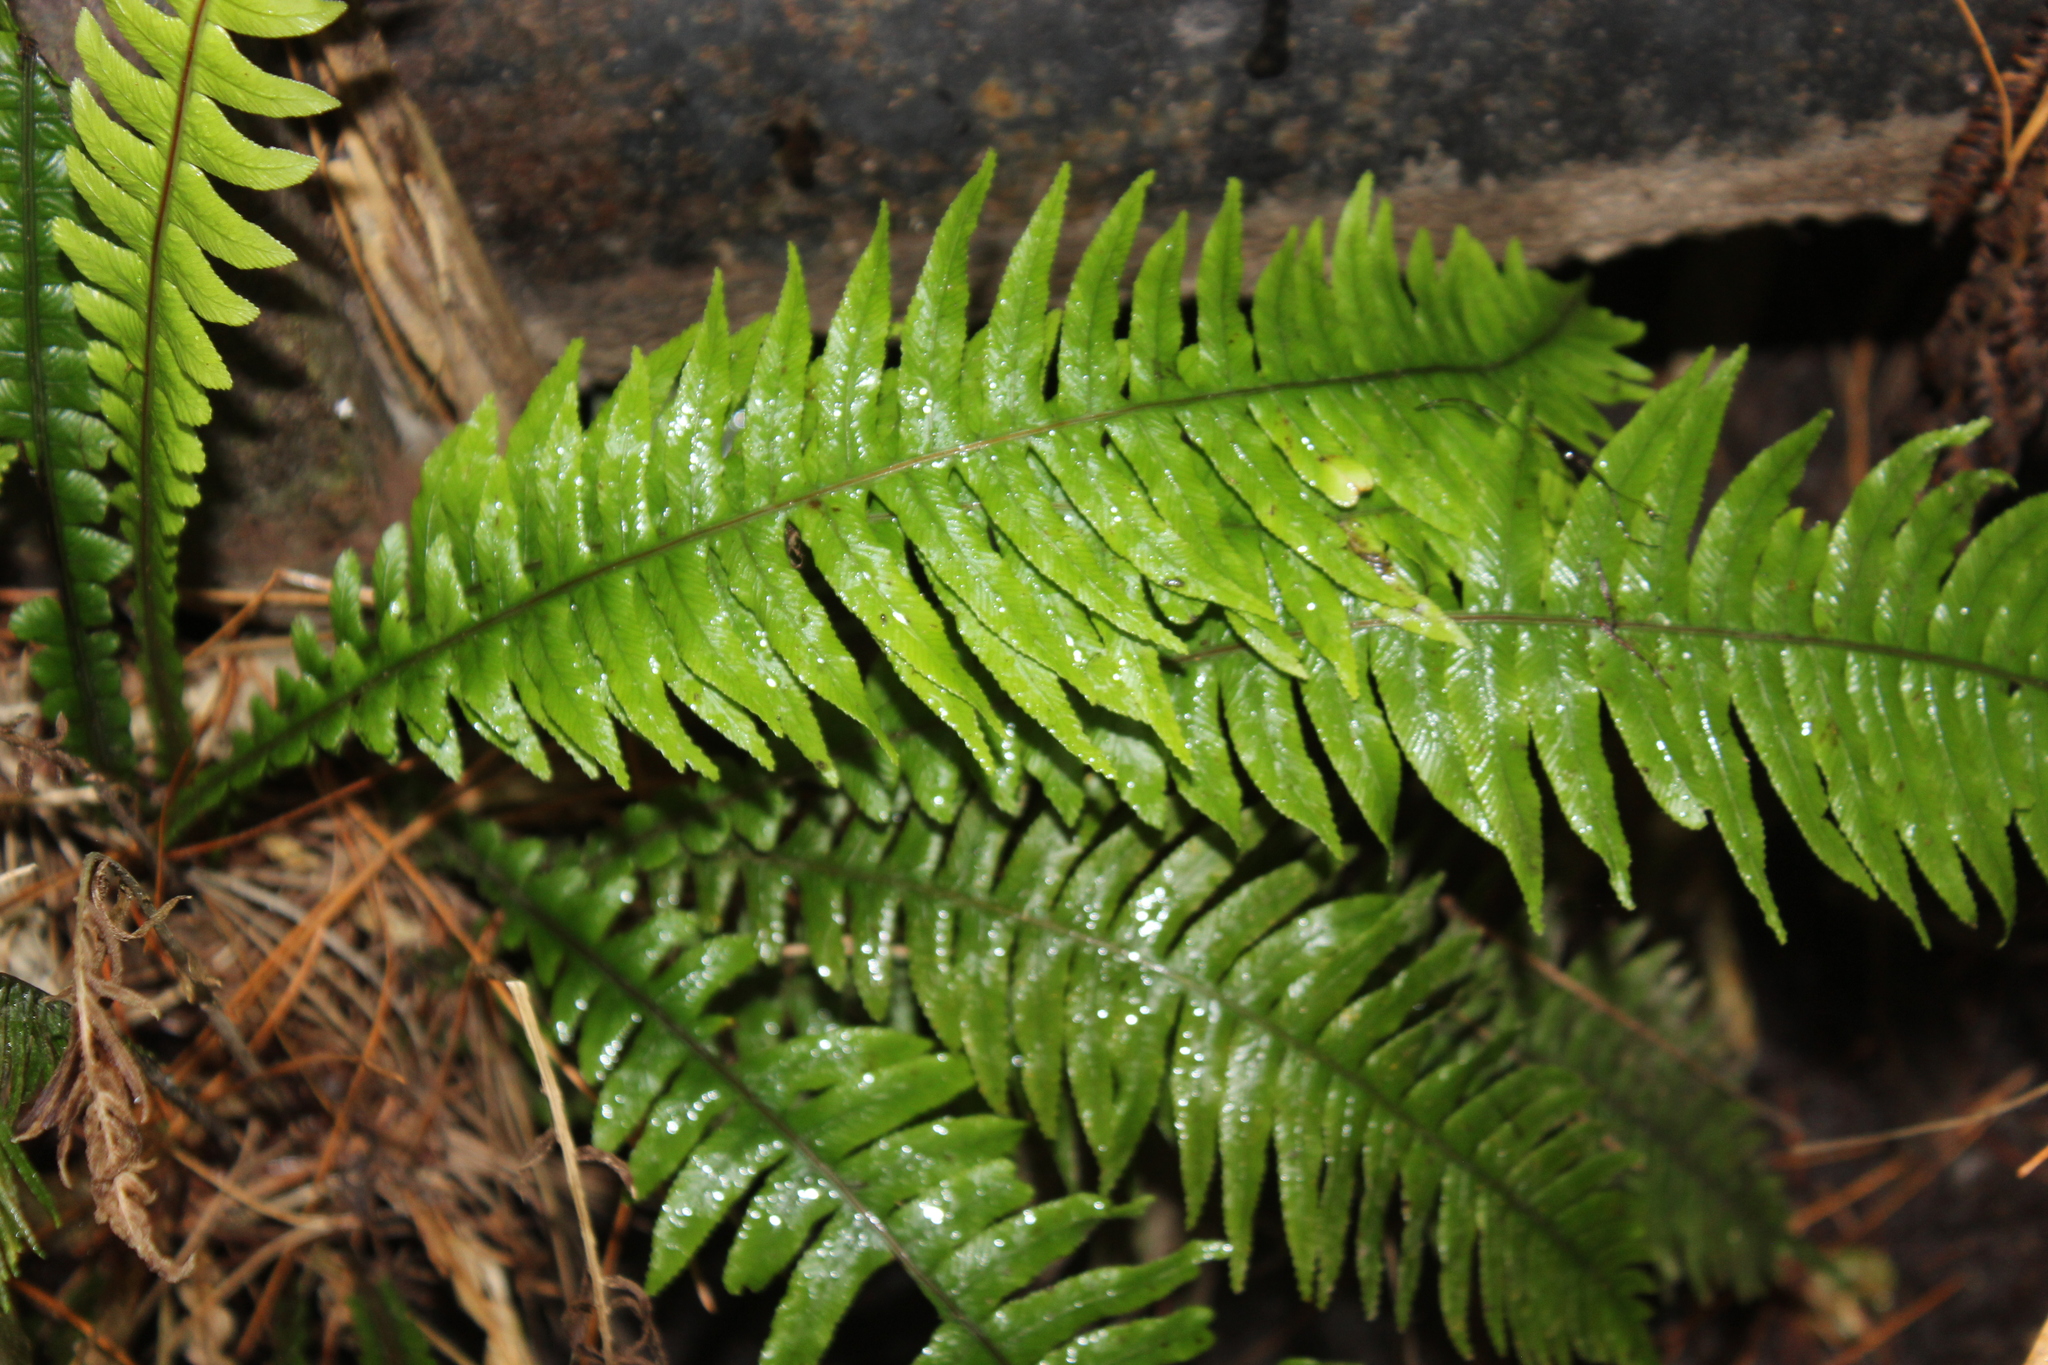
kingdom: Plantae
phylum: Tracheophyta
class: Polypodiopsida
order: Polypodiales
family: Blechnaceae
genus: Austroblechnum
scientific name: Austroblechnum lanceolatum
